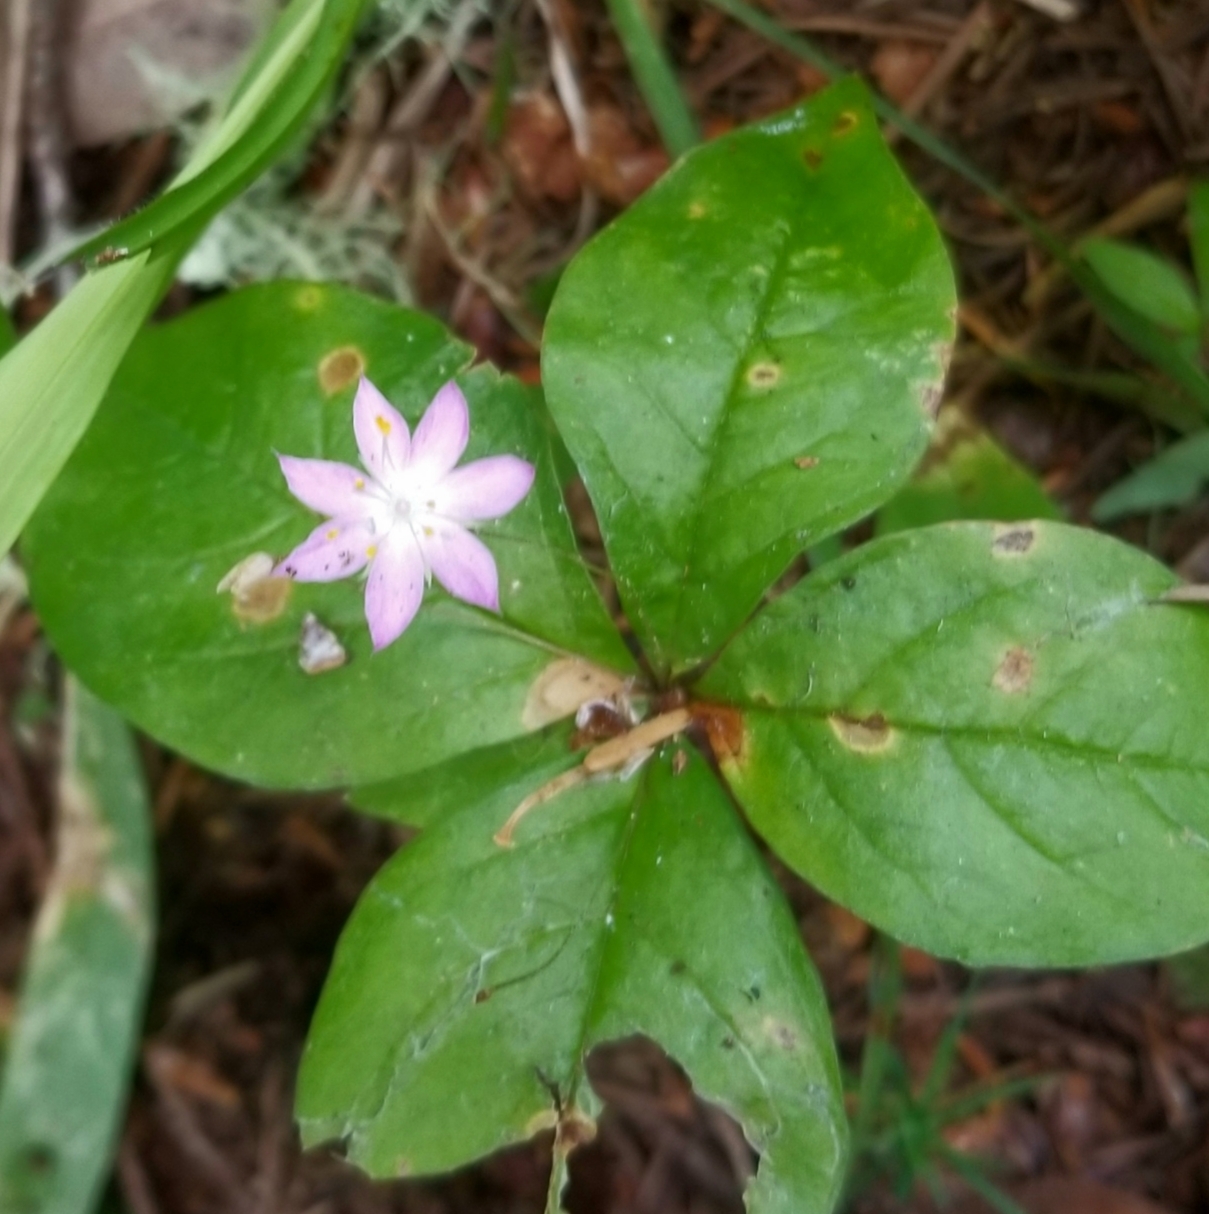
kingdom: Plantae
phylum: Tracheophyta
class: Magnoliopsida
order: Ericales
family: Primulaceae
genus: Lysimachia
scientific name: Lysimachia latifolia
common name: Pacific starflower
